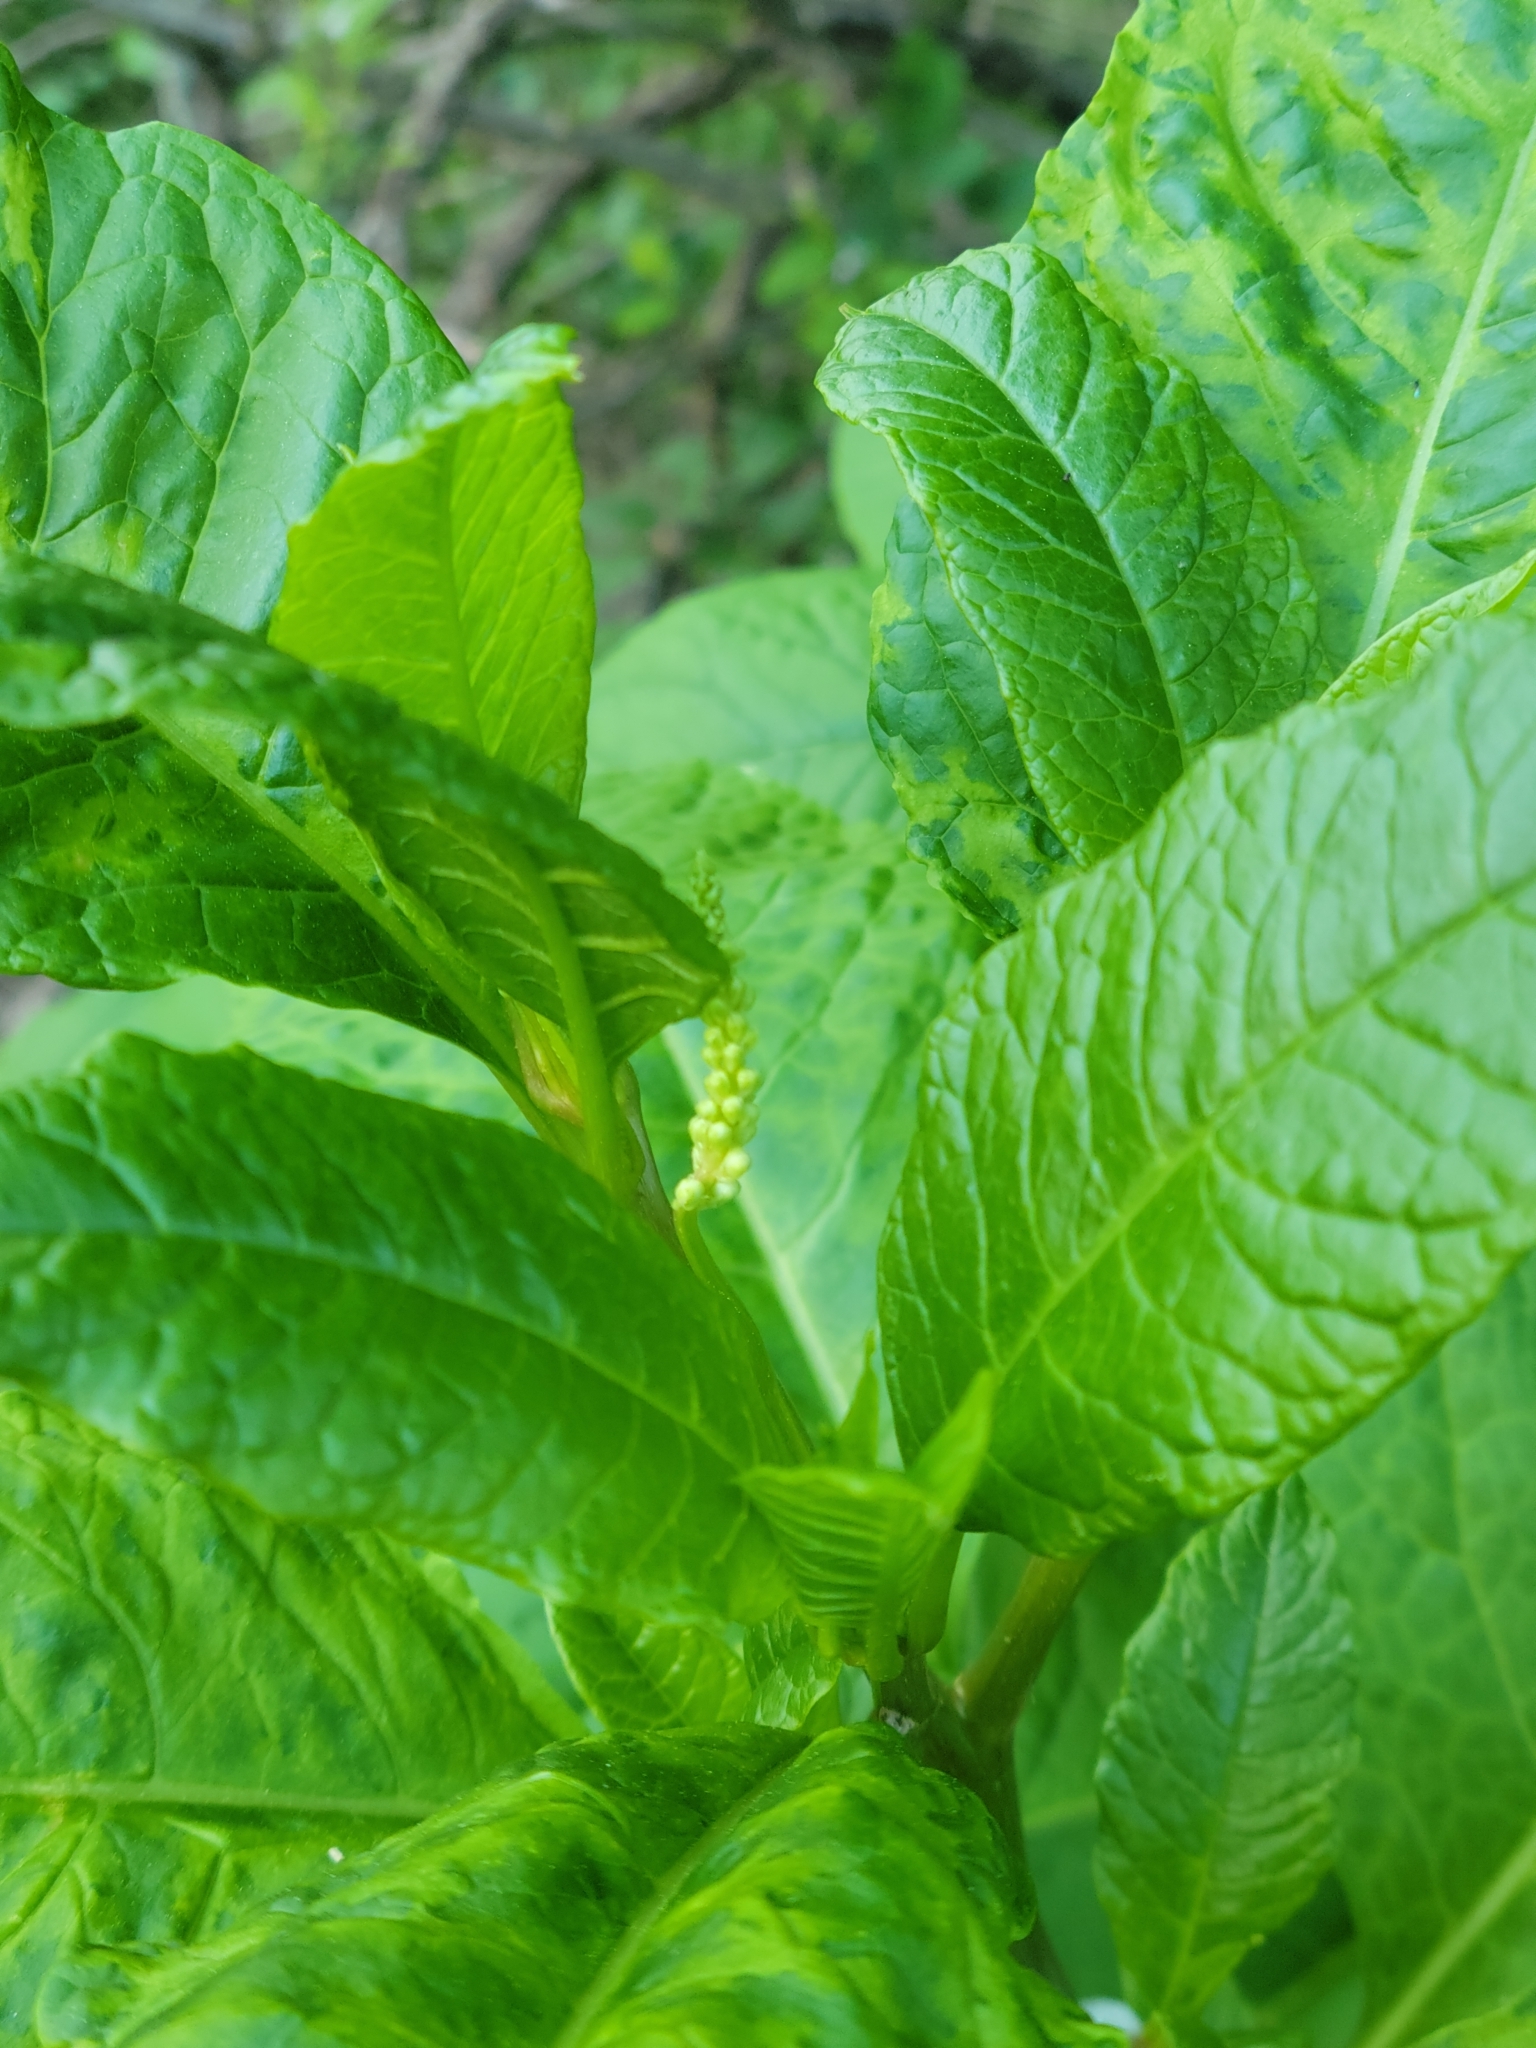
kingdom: Plantae
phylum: Tracheophyta
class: Magnoliopsida
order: Caryophyllales
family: Phytolaccaceae
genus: Phytolacca
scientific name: Phytolacca americana
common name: American pokeweed
